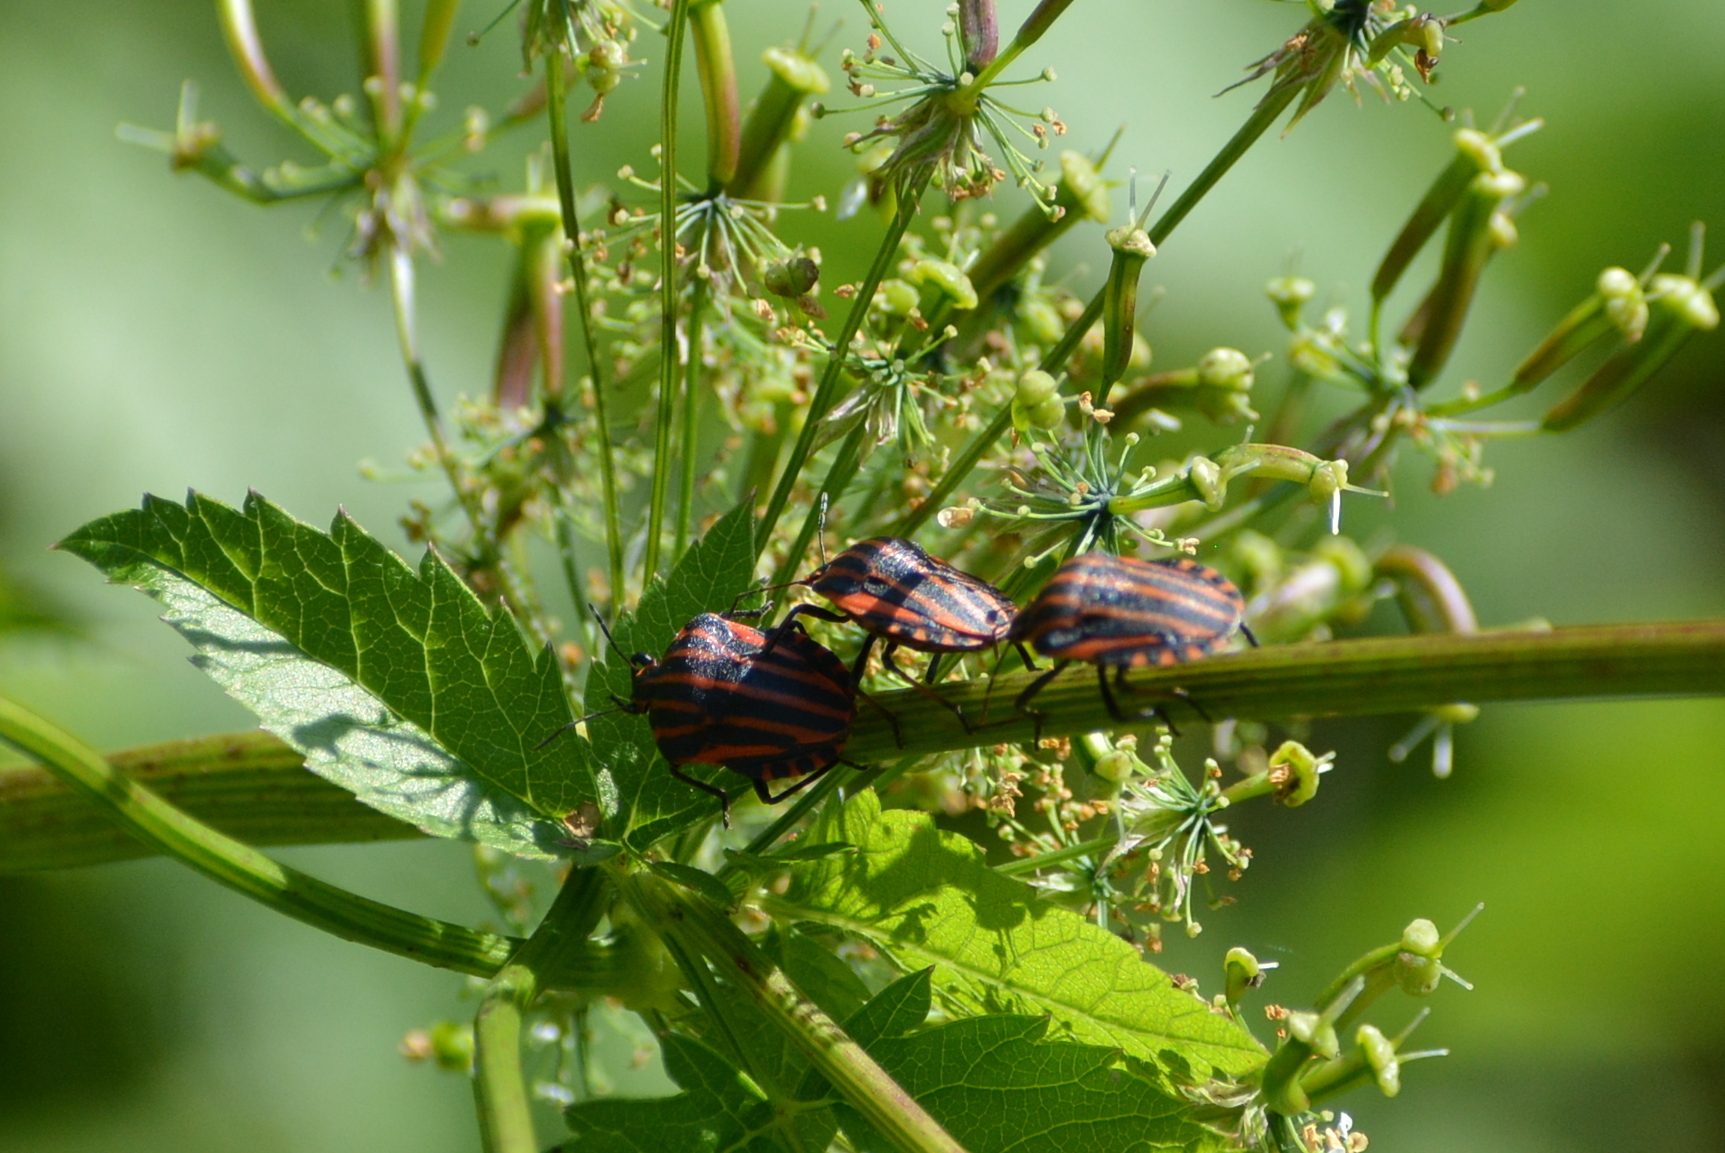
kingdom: Animalia
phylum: Arthropoda
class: Insecta
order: Hemiptera
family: Pentatomidae
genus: Graphosoma
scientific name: Graphosoma italicum
